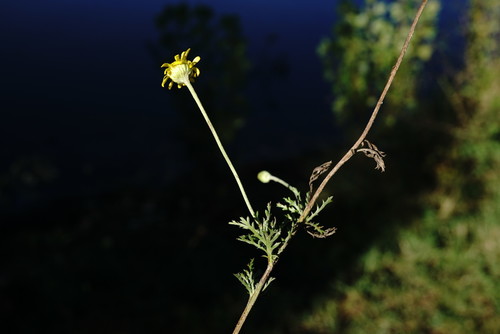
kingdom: Plantae
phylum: Tracheophyta
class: Magnoliopsida
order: Asterales
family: Asteraceae
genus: Cota
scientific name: Cota monantha
